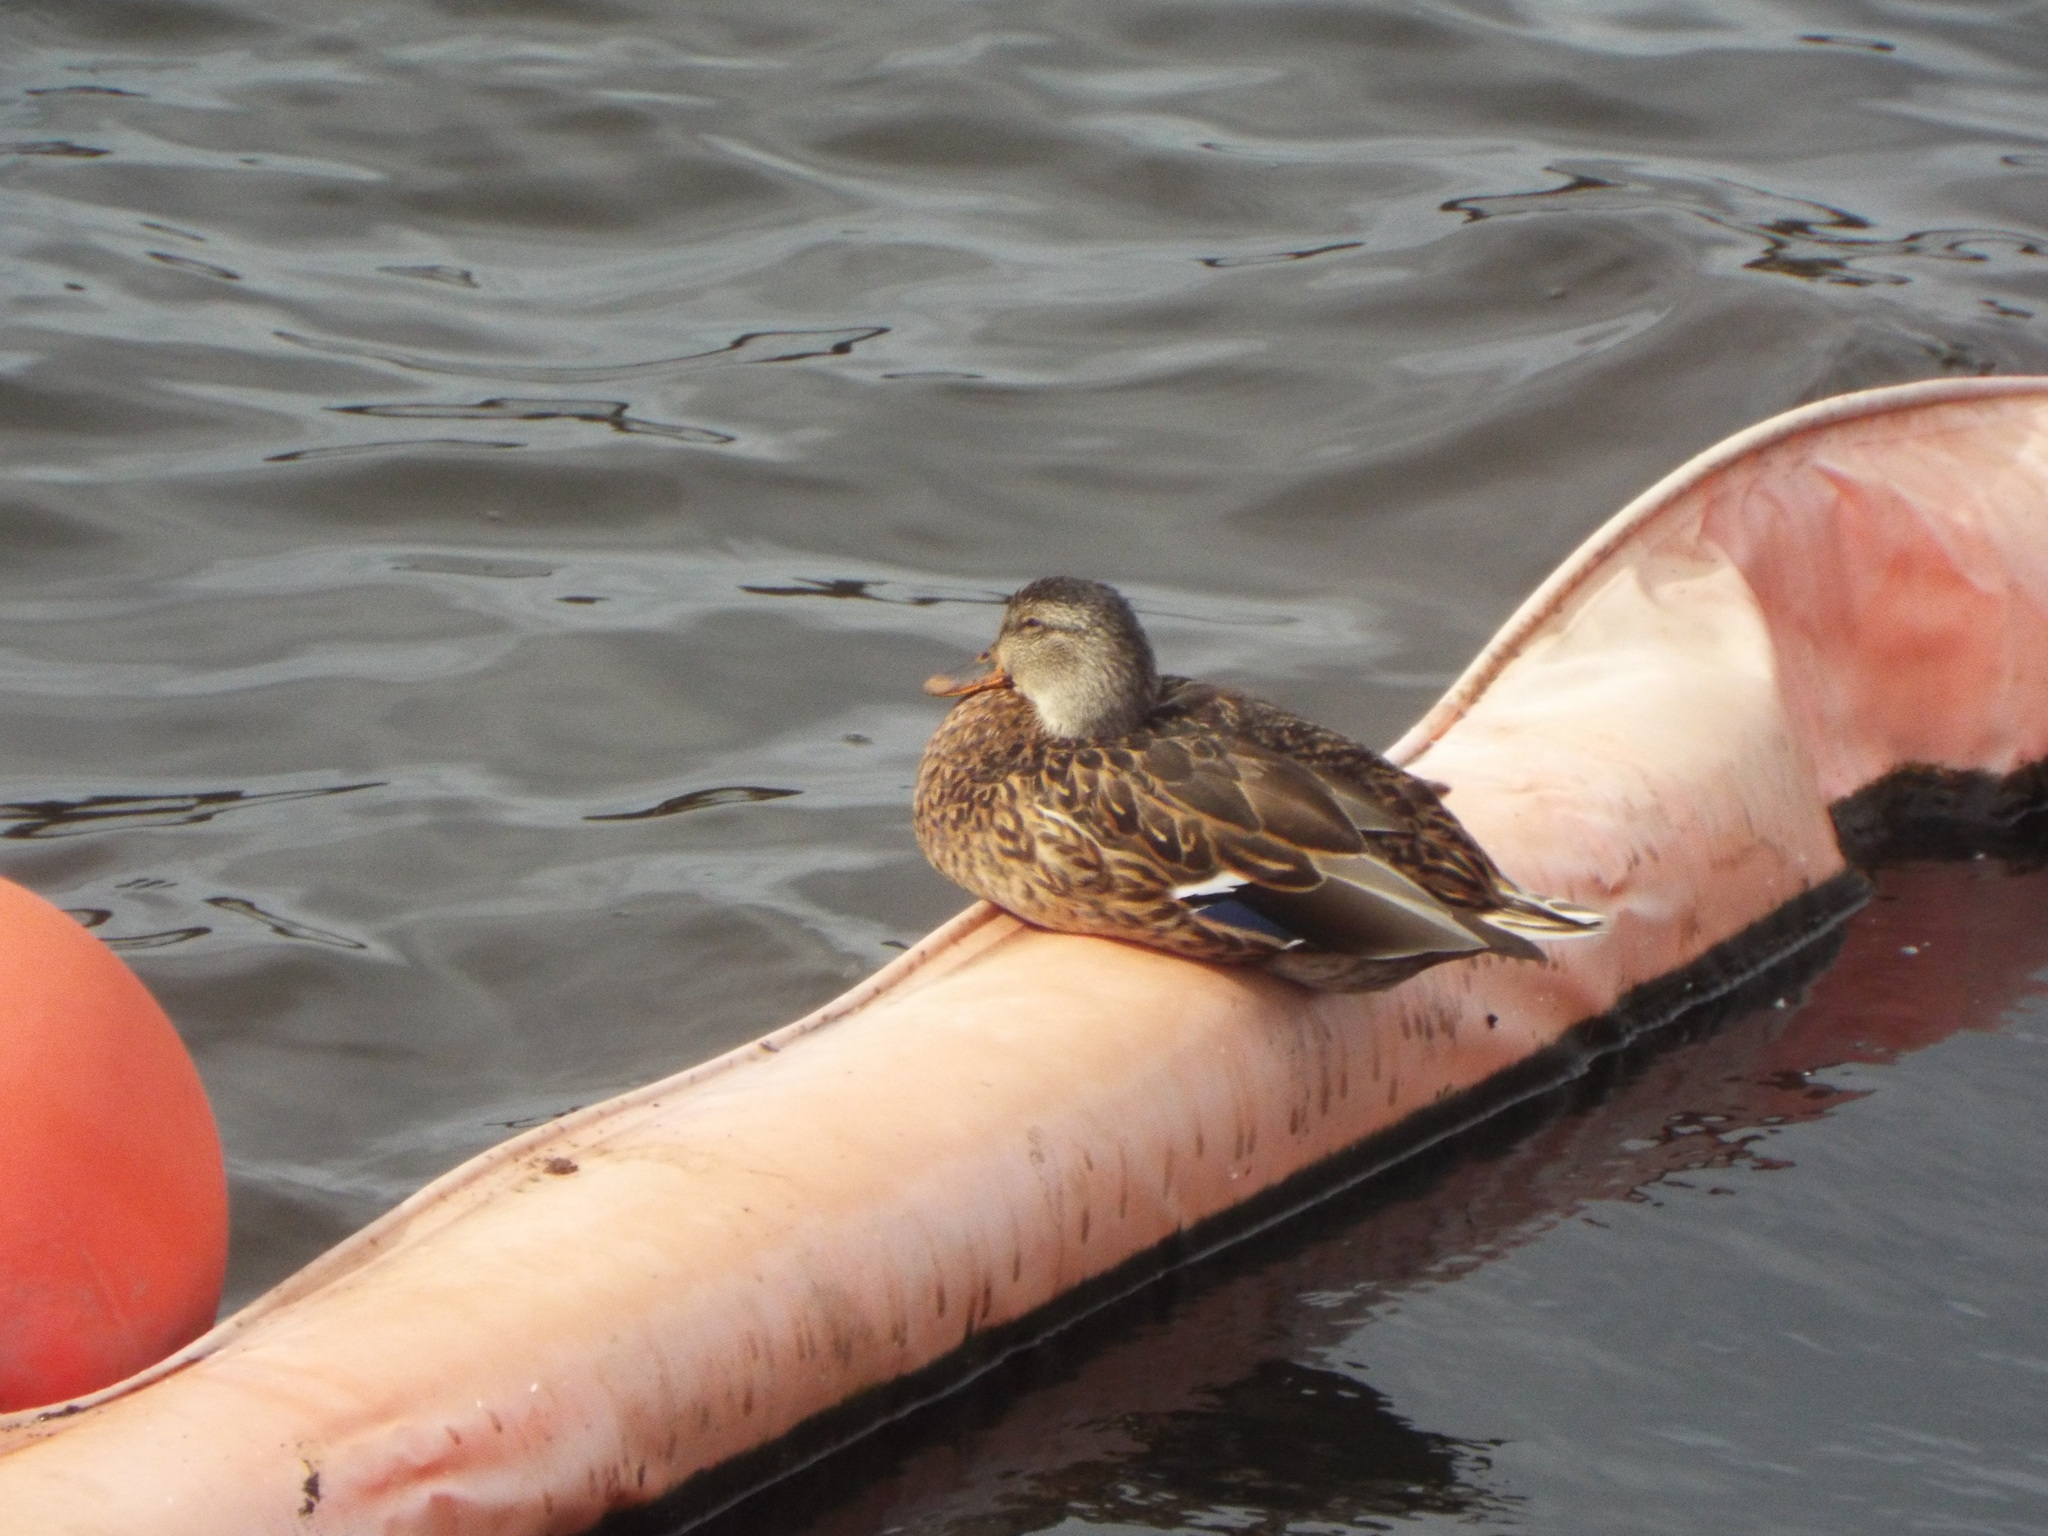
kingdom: Animalia
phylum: Chordata
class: Aves
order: Anseriformes
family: Anatidae
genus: Anas
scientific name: Anas platyrhynchos
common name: Mallard
